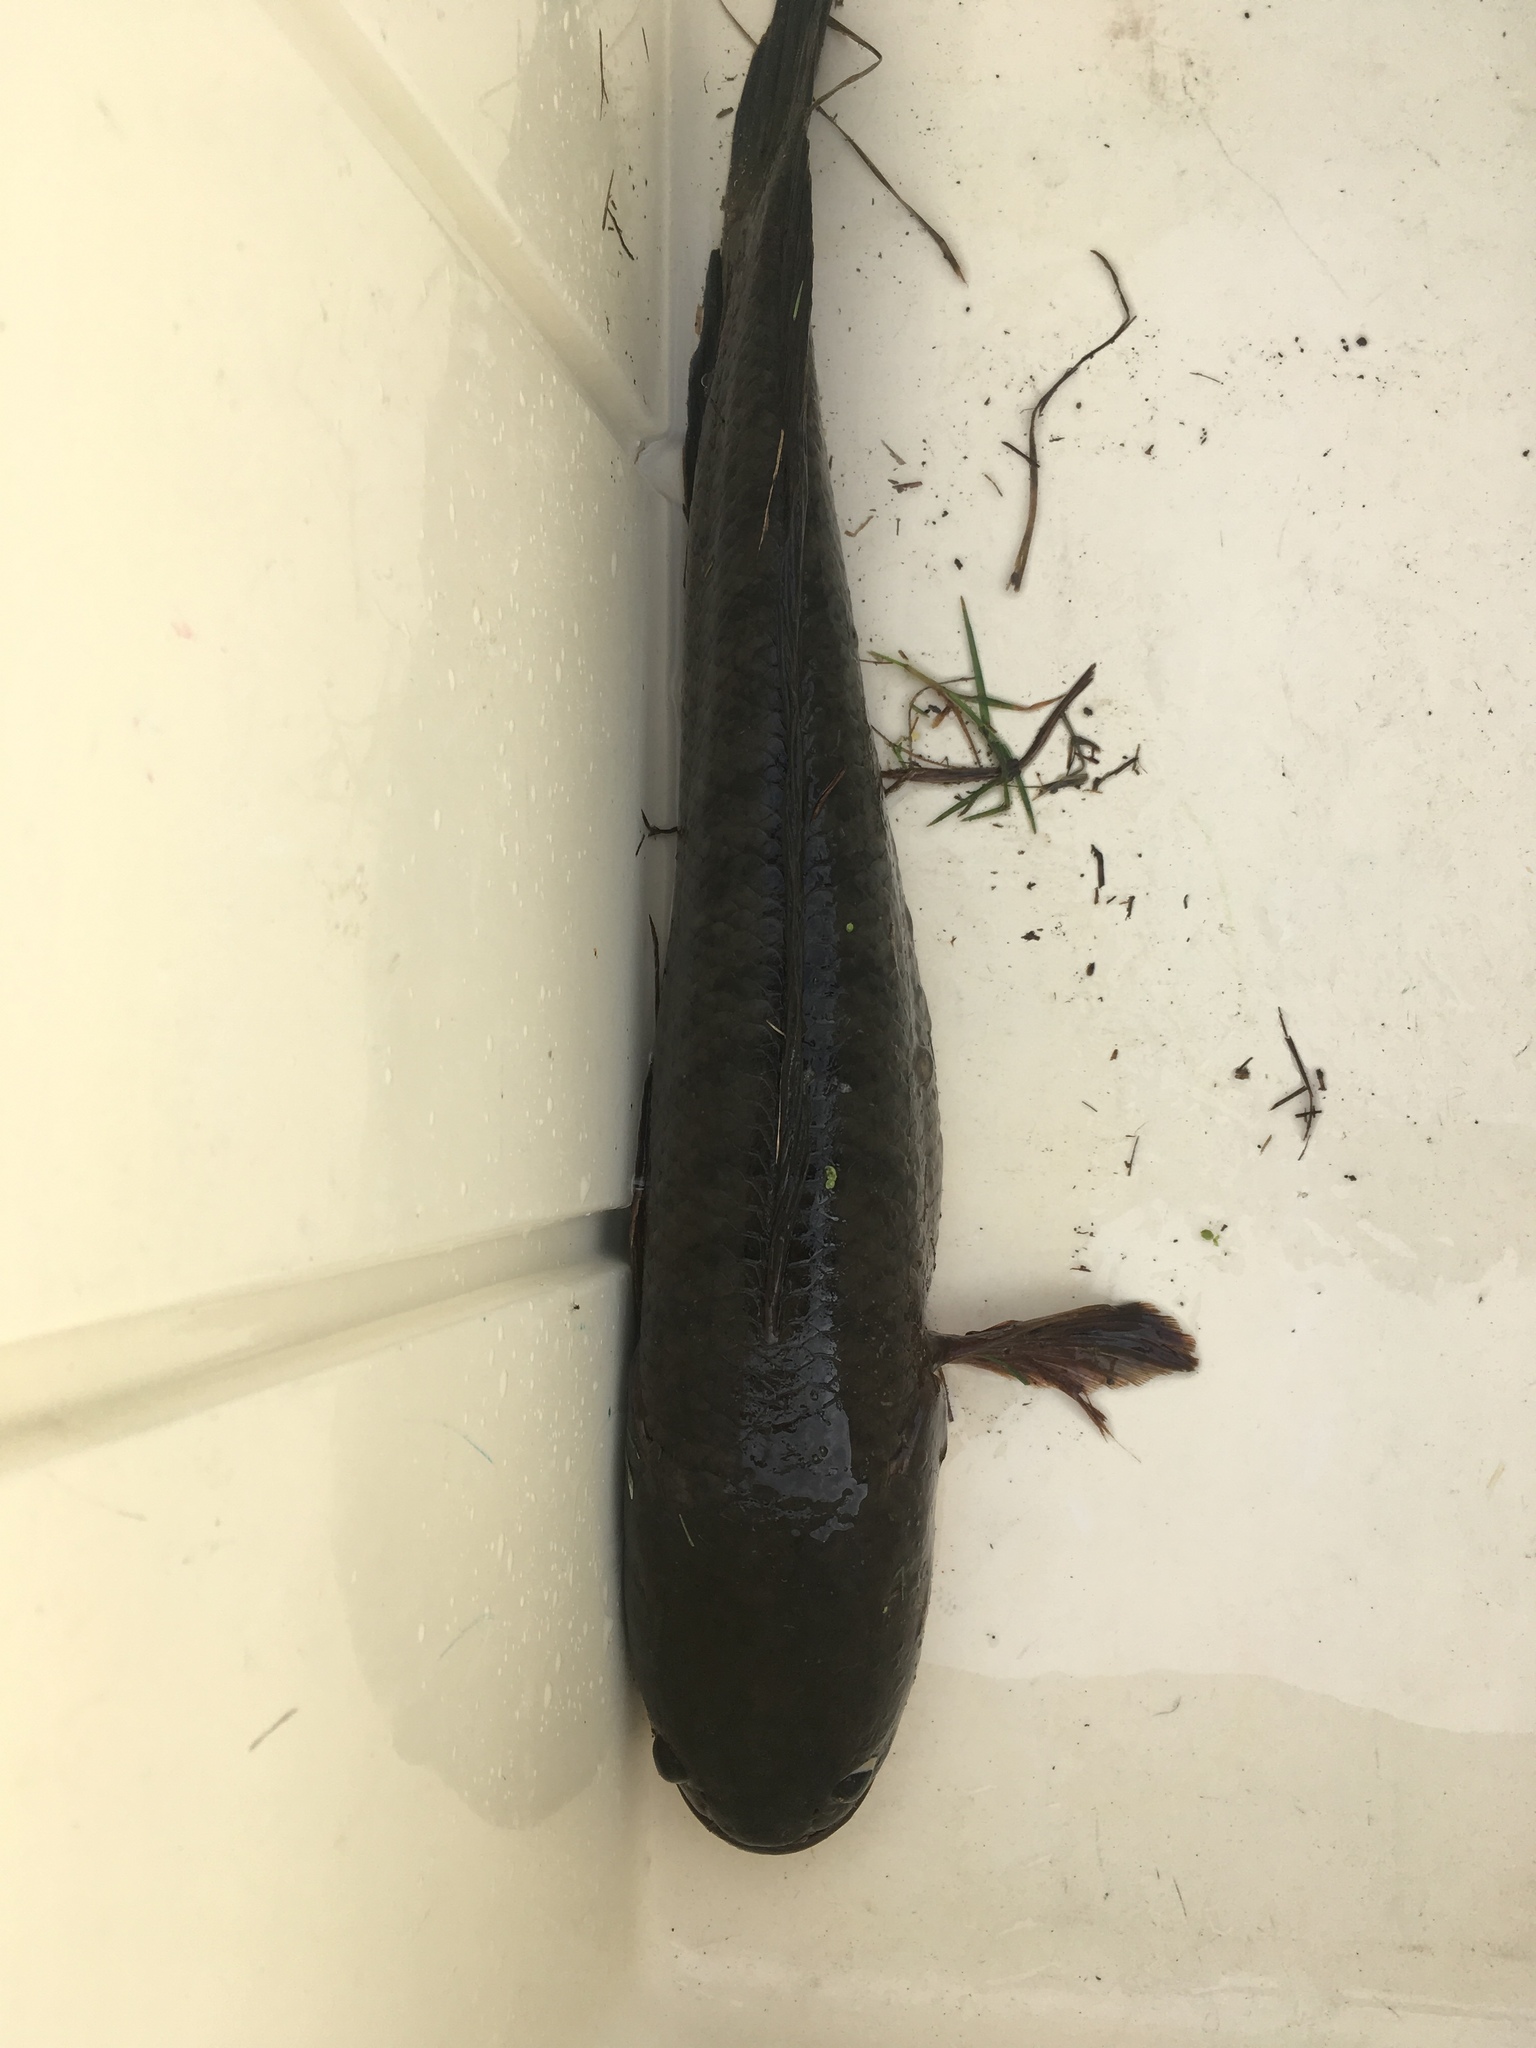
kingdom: Animalia
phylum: Chordata
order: Perciformes
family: Channidae
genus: Channa
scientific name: Channa striata
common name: Striped snakehead
